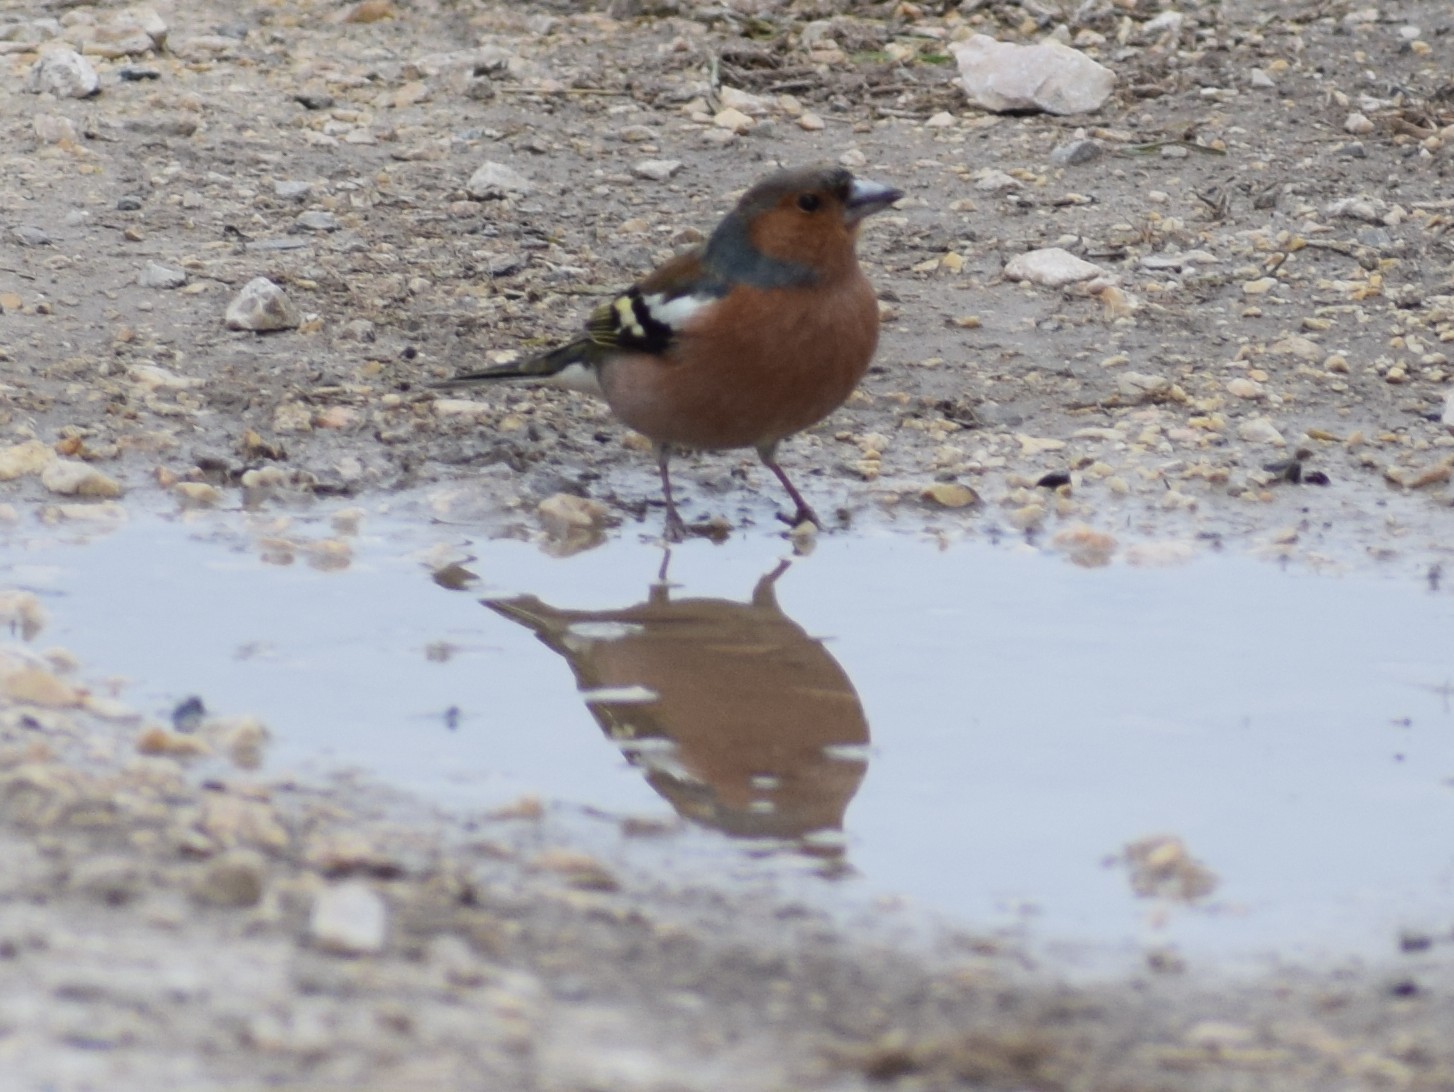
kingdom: Animalia
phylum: Chordata
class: Aves
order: Passeriformes
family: Fringillidae
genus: Fringilla
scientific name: Fringilla coelebs
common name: Common chaffinch
